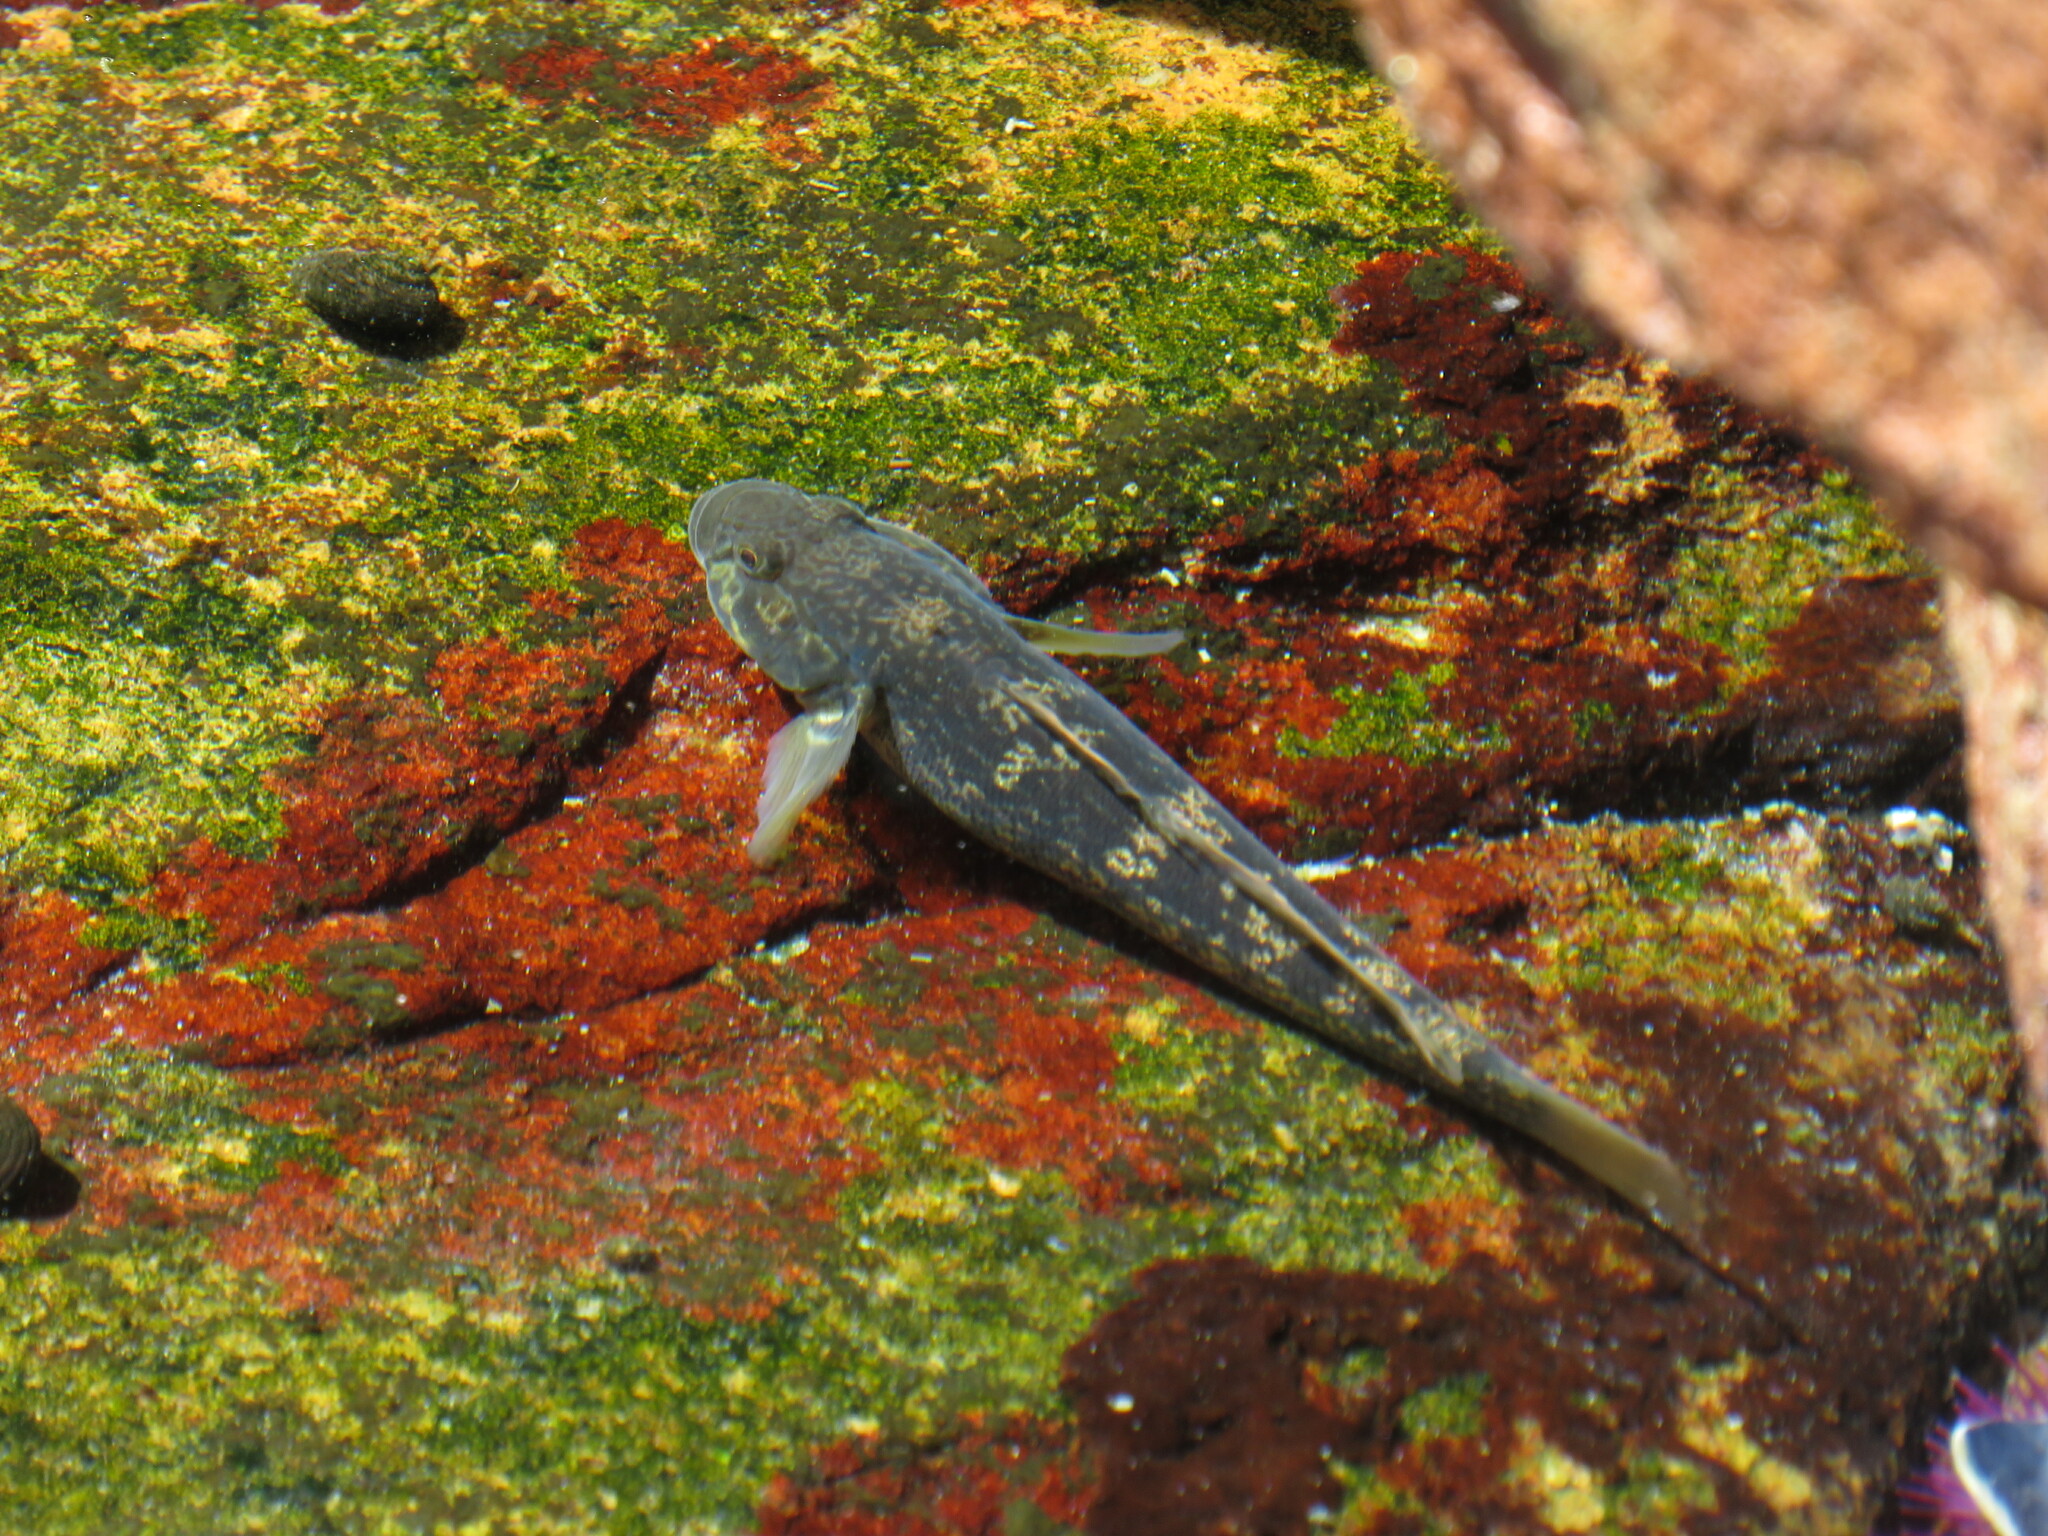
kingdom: Animalia
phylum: Chordata
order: Perciformes
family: Gobiidae
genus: Caffrogobius
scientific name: Caffrogobius caffer
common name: Banded goby
